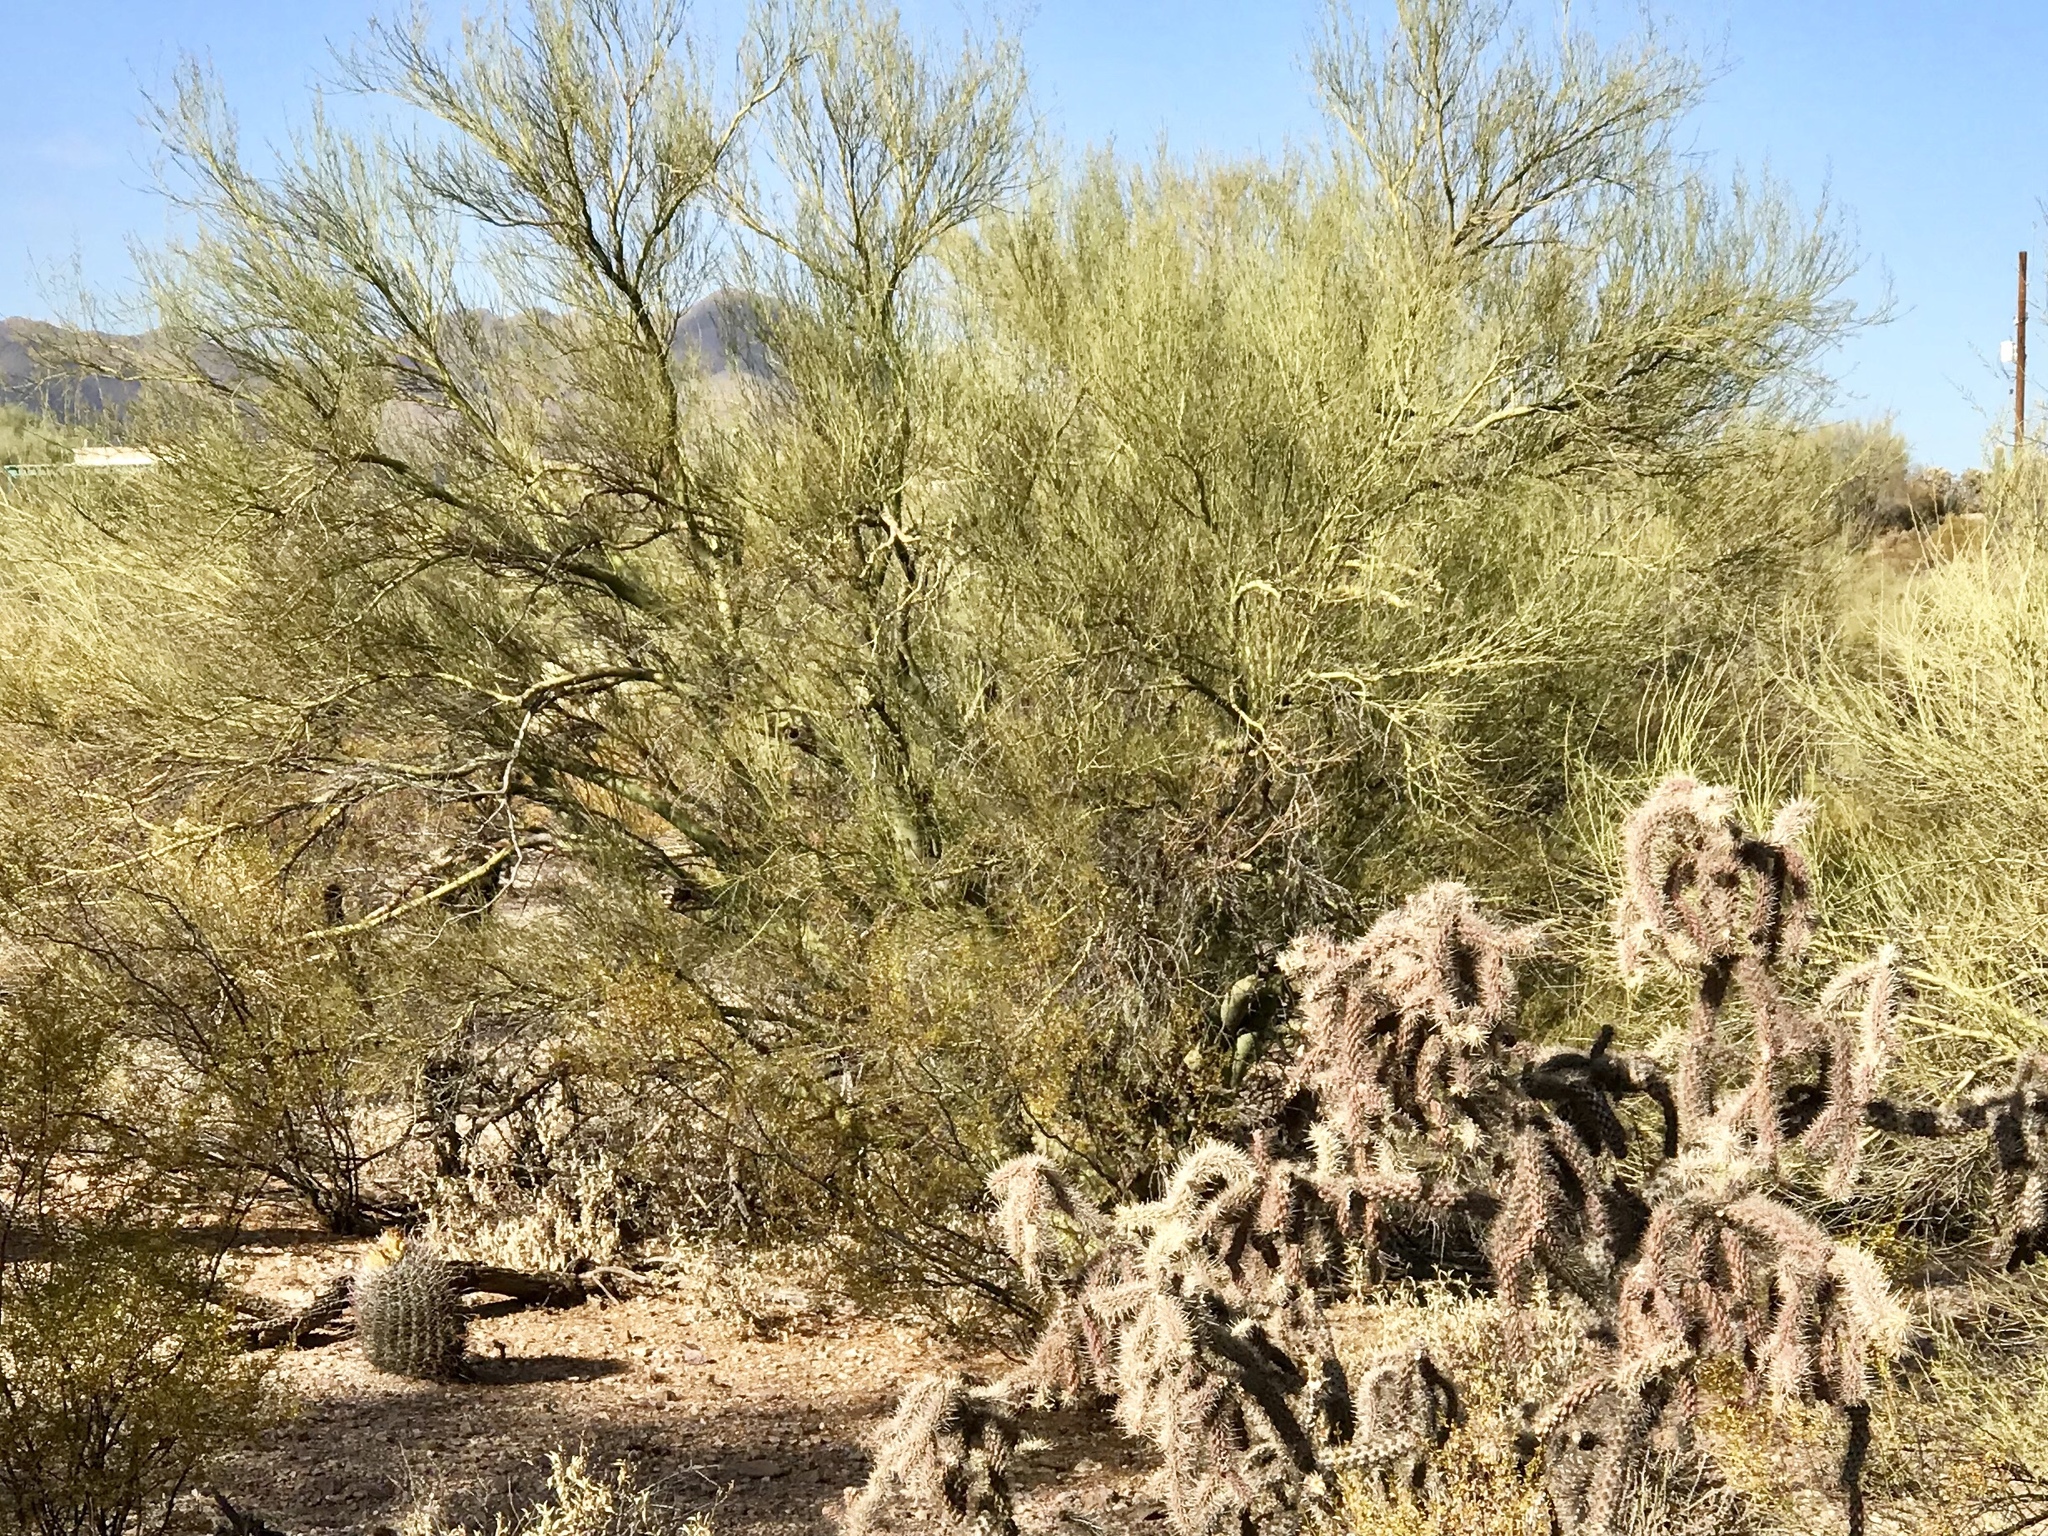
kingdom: Plantae
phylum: Tracheophyta
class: Magnoliopsida
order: Fabales
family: Fabaceae
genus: Parkinsonia
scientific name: Parkinsonia microphylla
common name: Yellow paloverde
